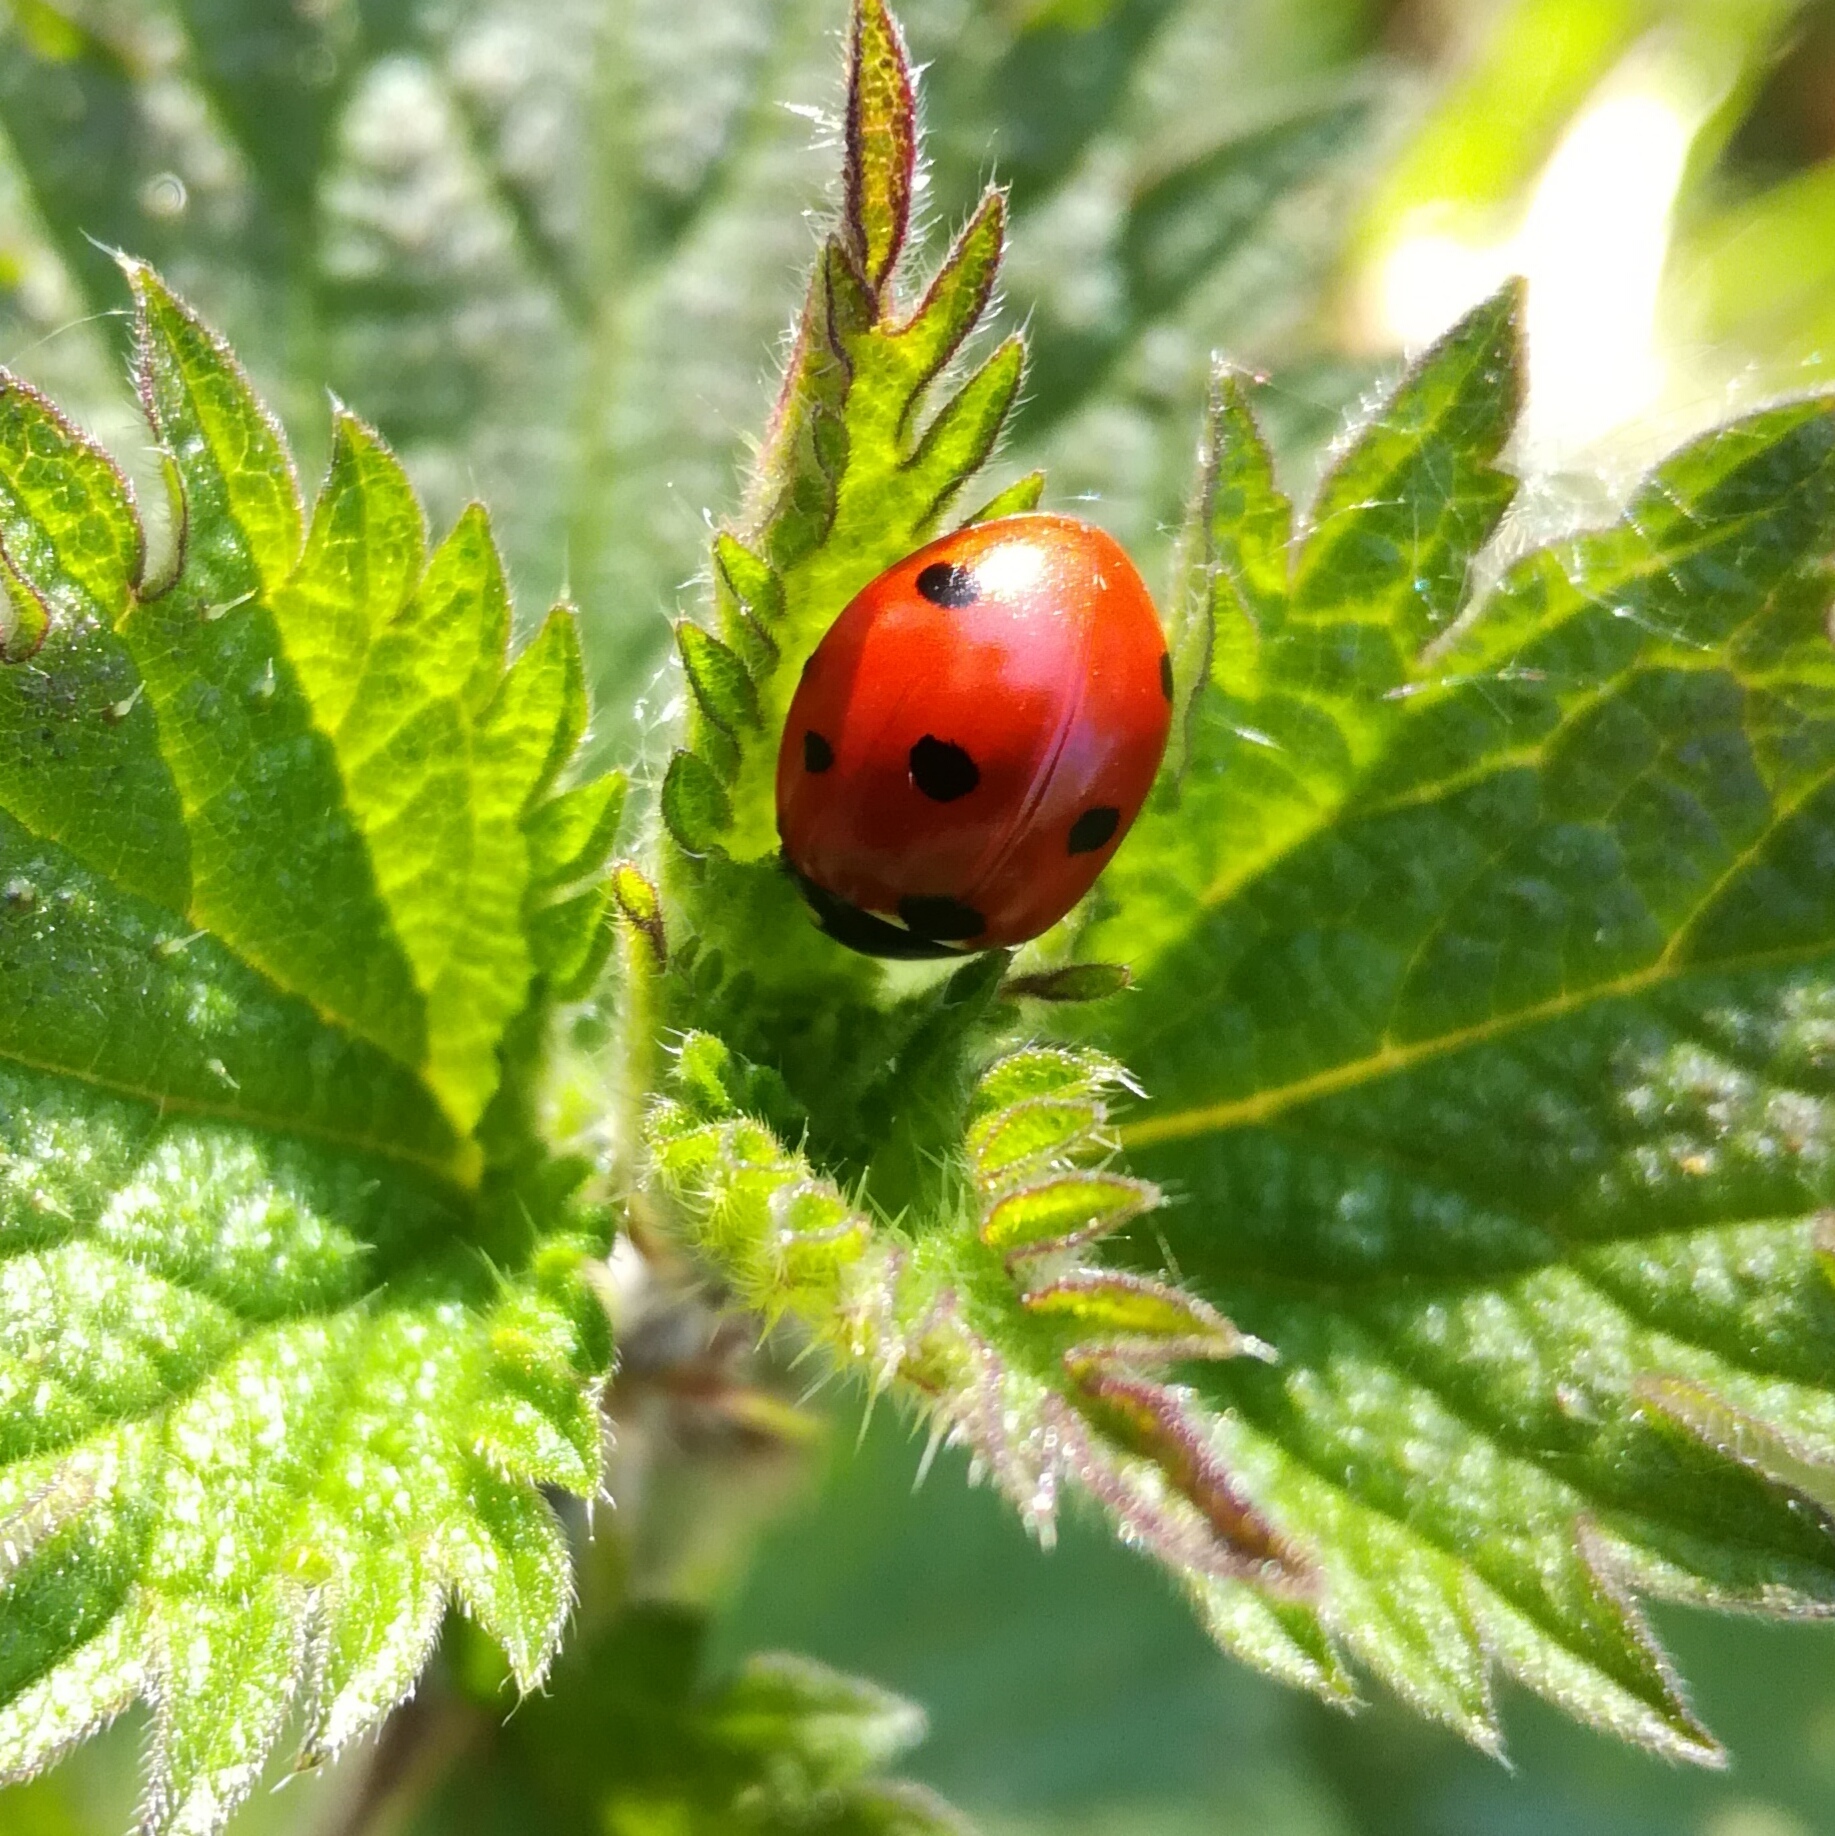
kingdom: Animalia
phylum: Arthropoda
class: Insecta
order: Coleoptera
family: Coccinellidae
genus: Coccinella
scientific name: Coccinella septempunctata
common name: Sevenspotted lady beetle
